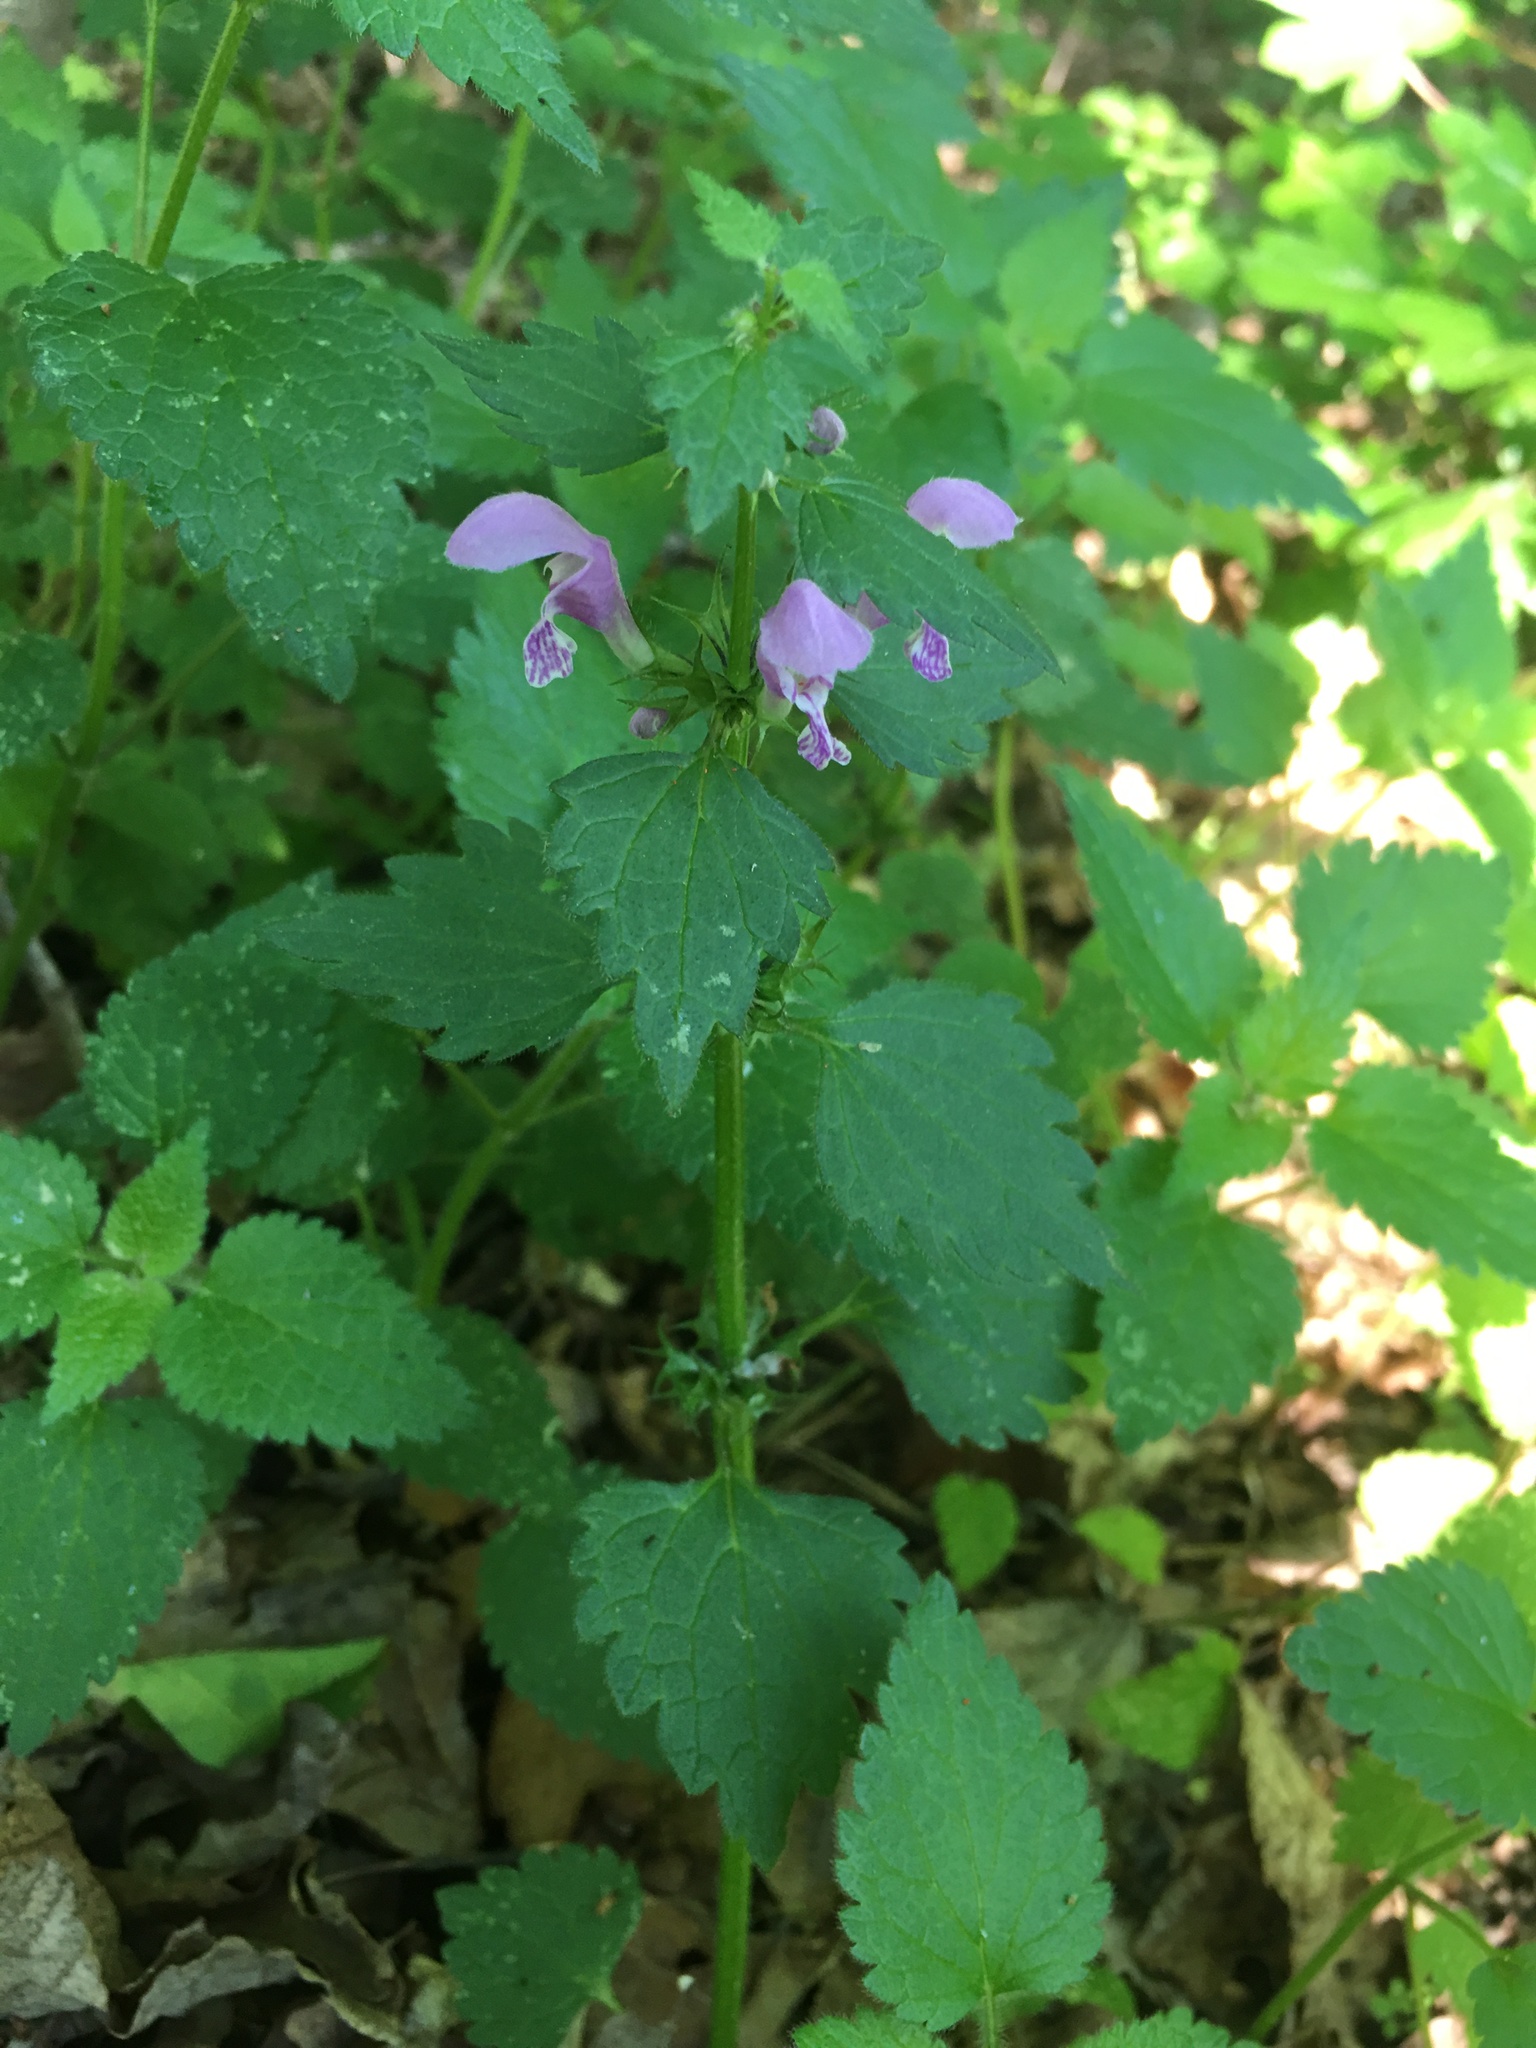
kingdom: Plantae
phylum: Tracheophyta
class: Magnoliopsida
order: Lamiales
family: Lamiaceae
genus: Lamium
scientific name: Lamium maculatum
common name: Spotted dead-nettle
